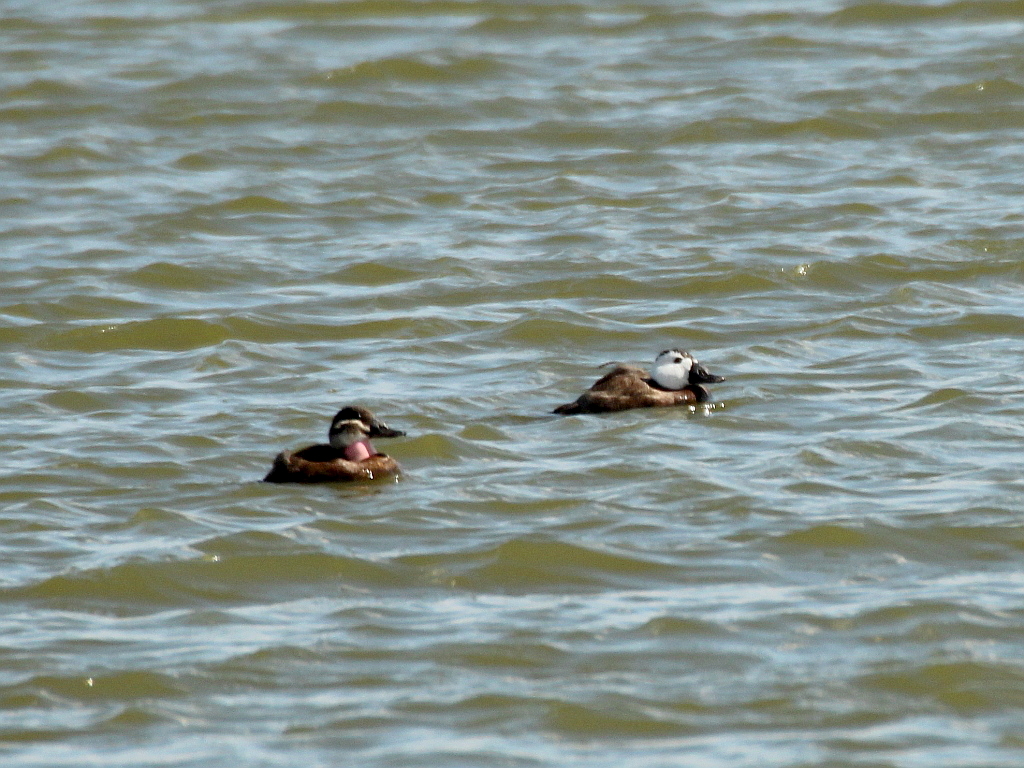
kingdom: Animalia
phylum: Chordata
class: Aves
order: Anseriformes
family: Anatidae
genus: Oxyura
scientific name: Oxyura leucocephala
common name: White-headed duck
